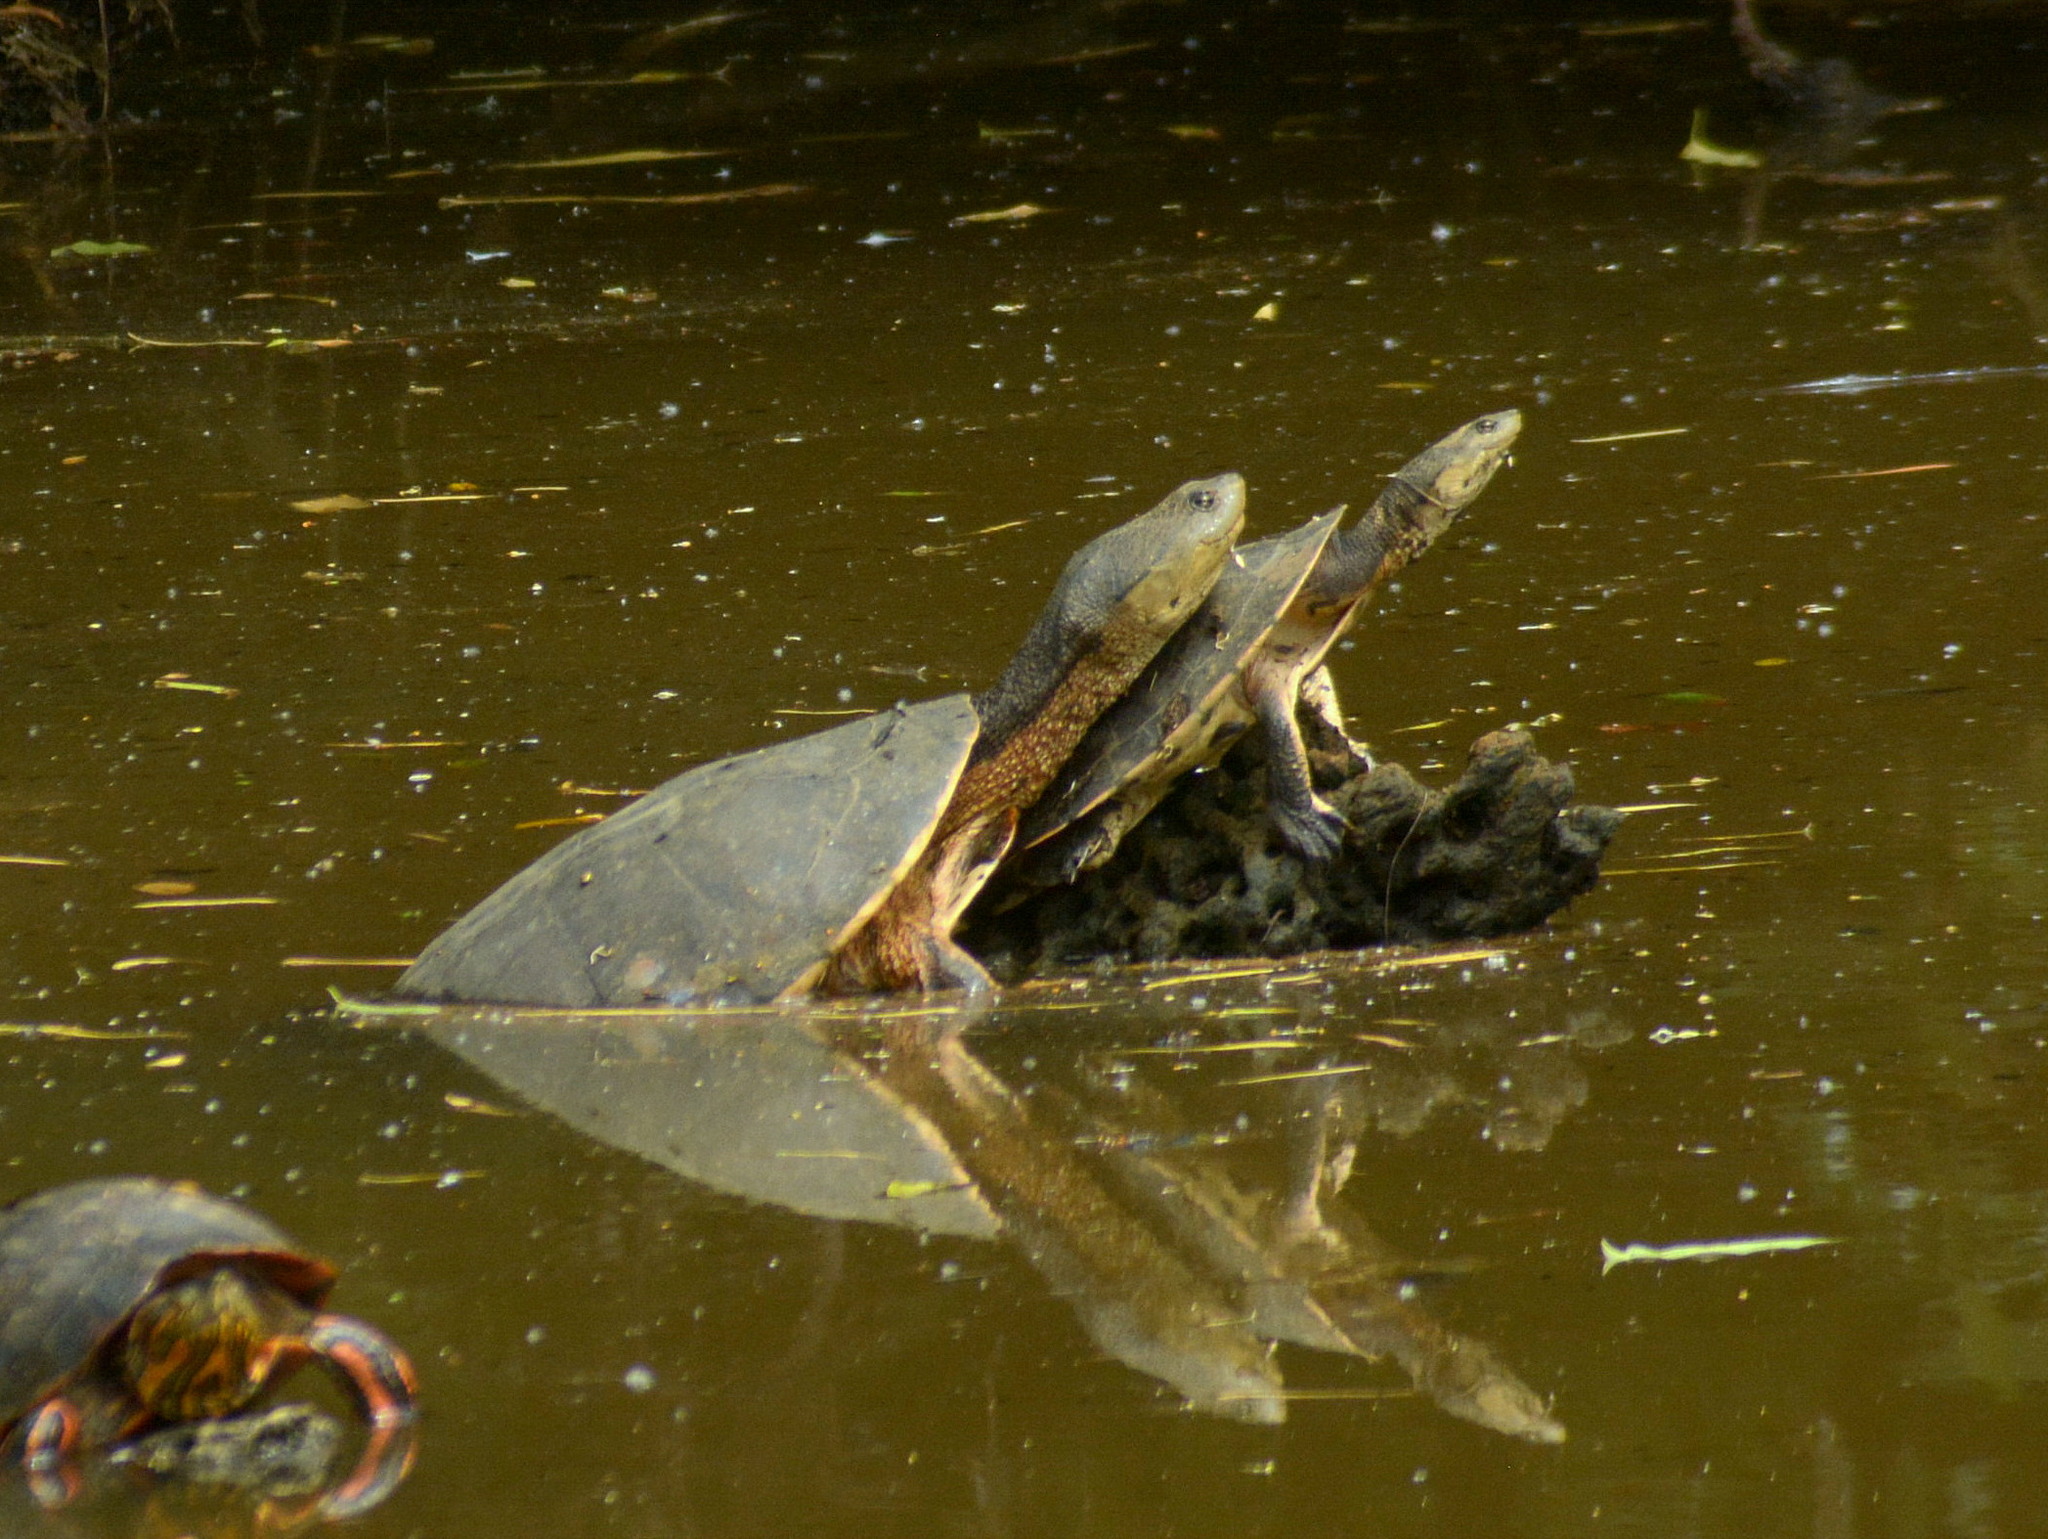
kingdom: Animalia
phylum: Chordata
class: Testudines
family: Chelidae
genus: Phrynops
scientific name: Phrynops hilarii
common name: Side-necked turtle of saint hillaire
